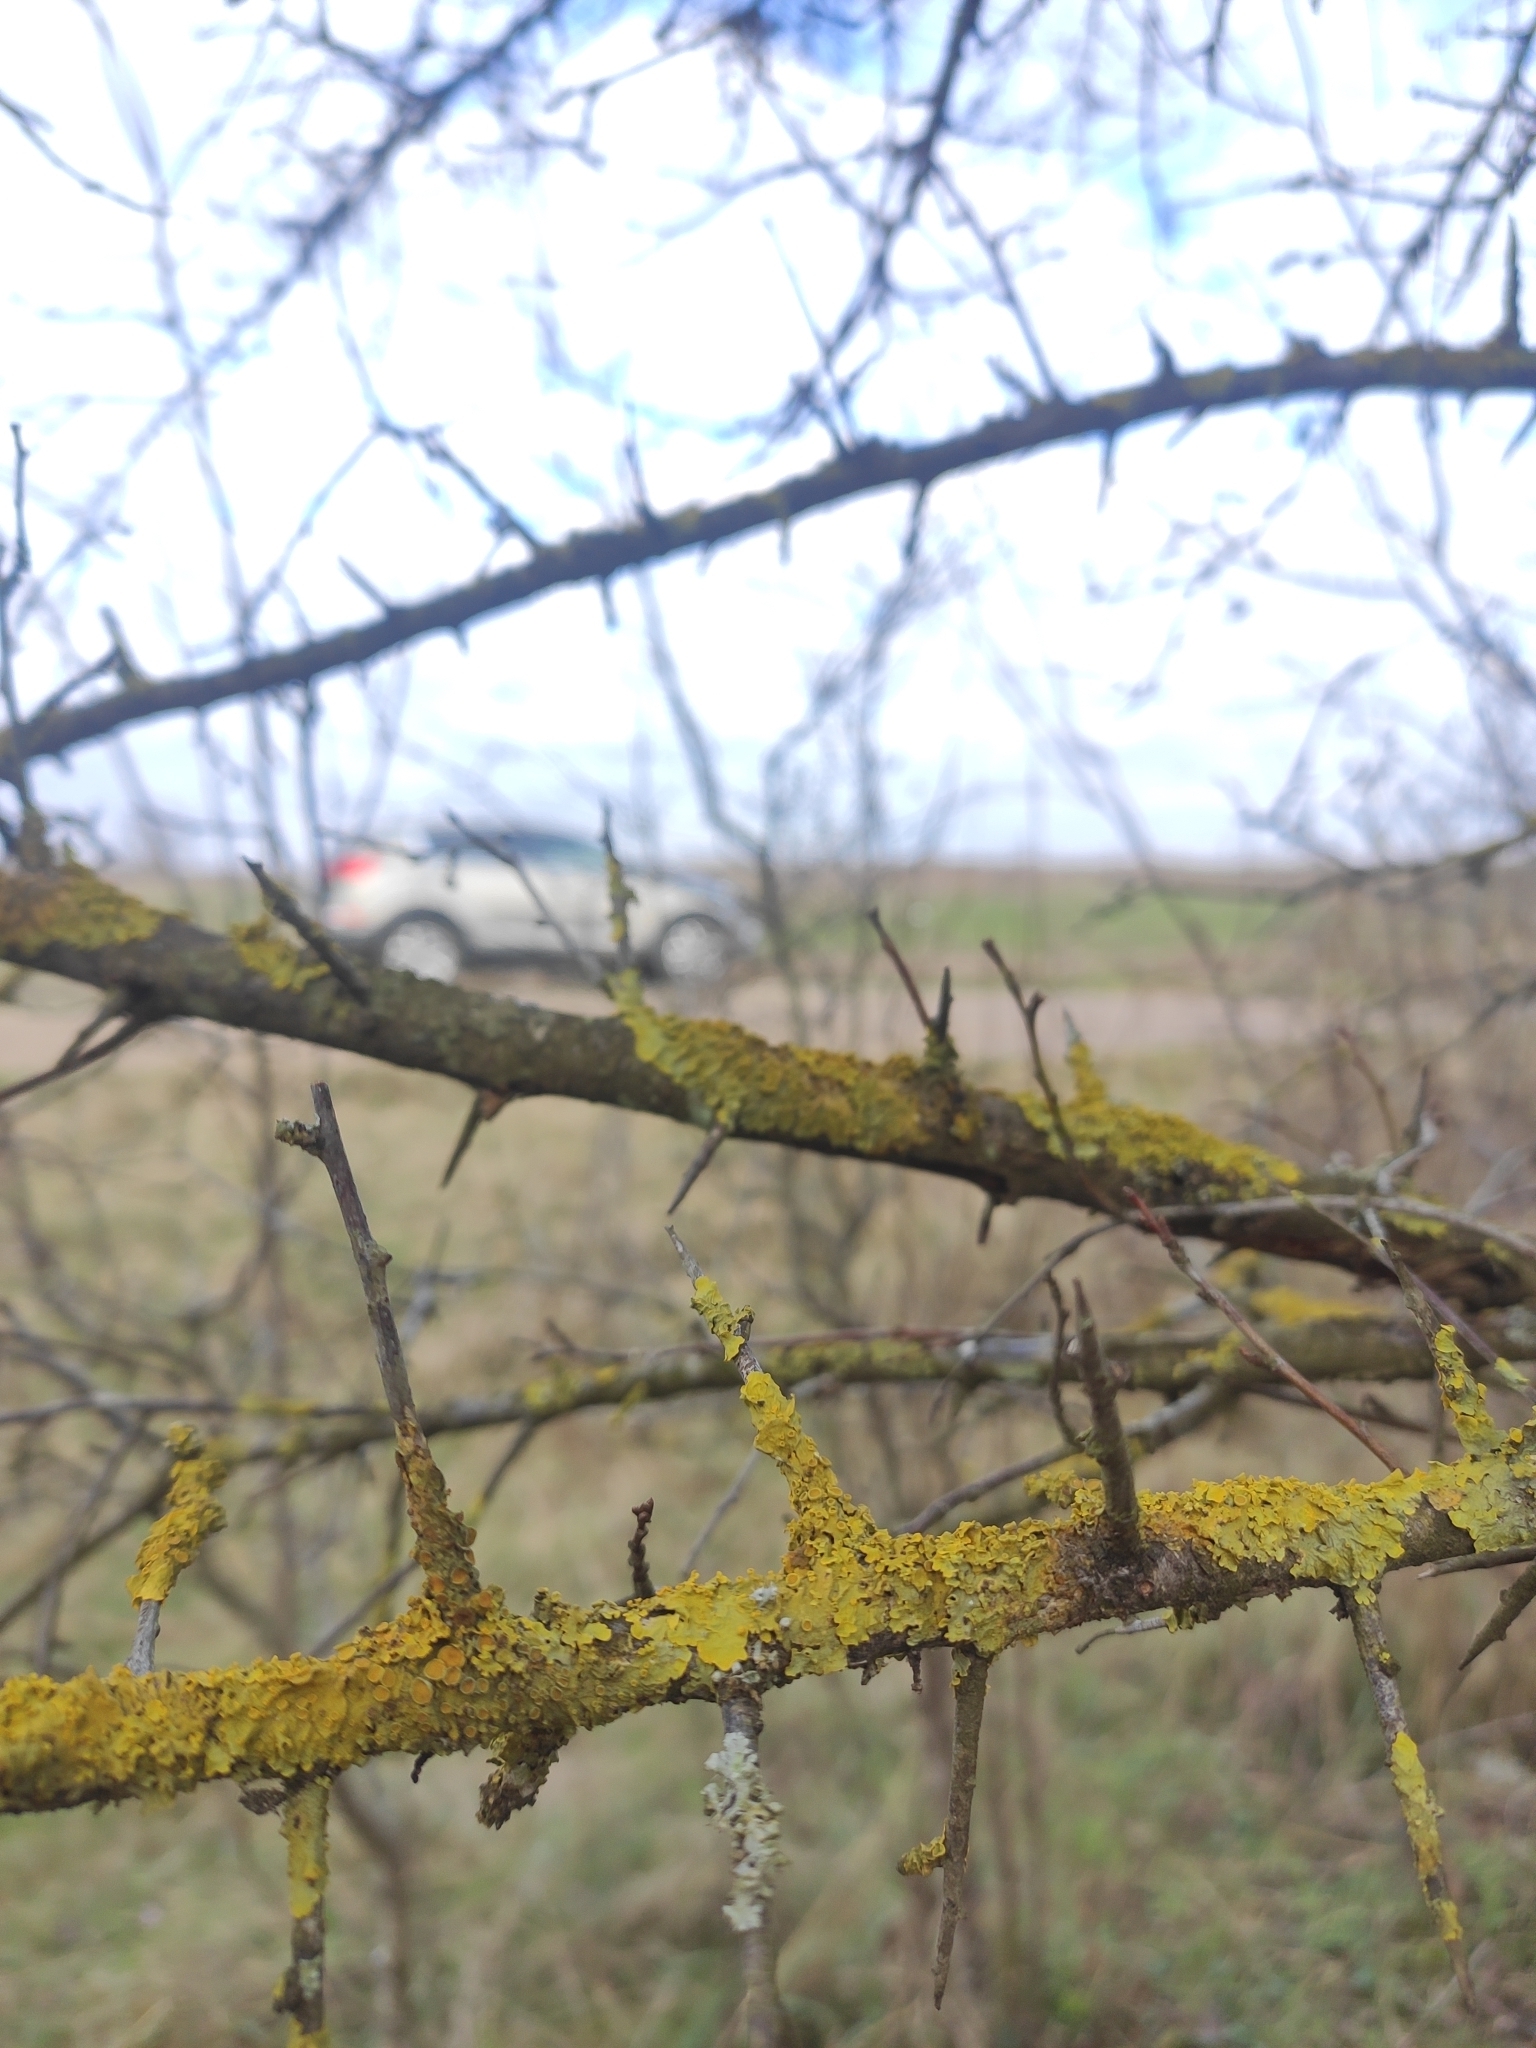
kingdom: Fungi
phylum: Ascomycota
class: Lecanoromycetes
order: Teloschistales
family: Teloschistaceae
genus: Xanthoria
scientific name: Xanthoria parietina
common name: Common orange lichen
